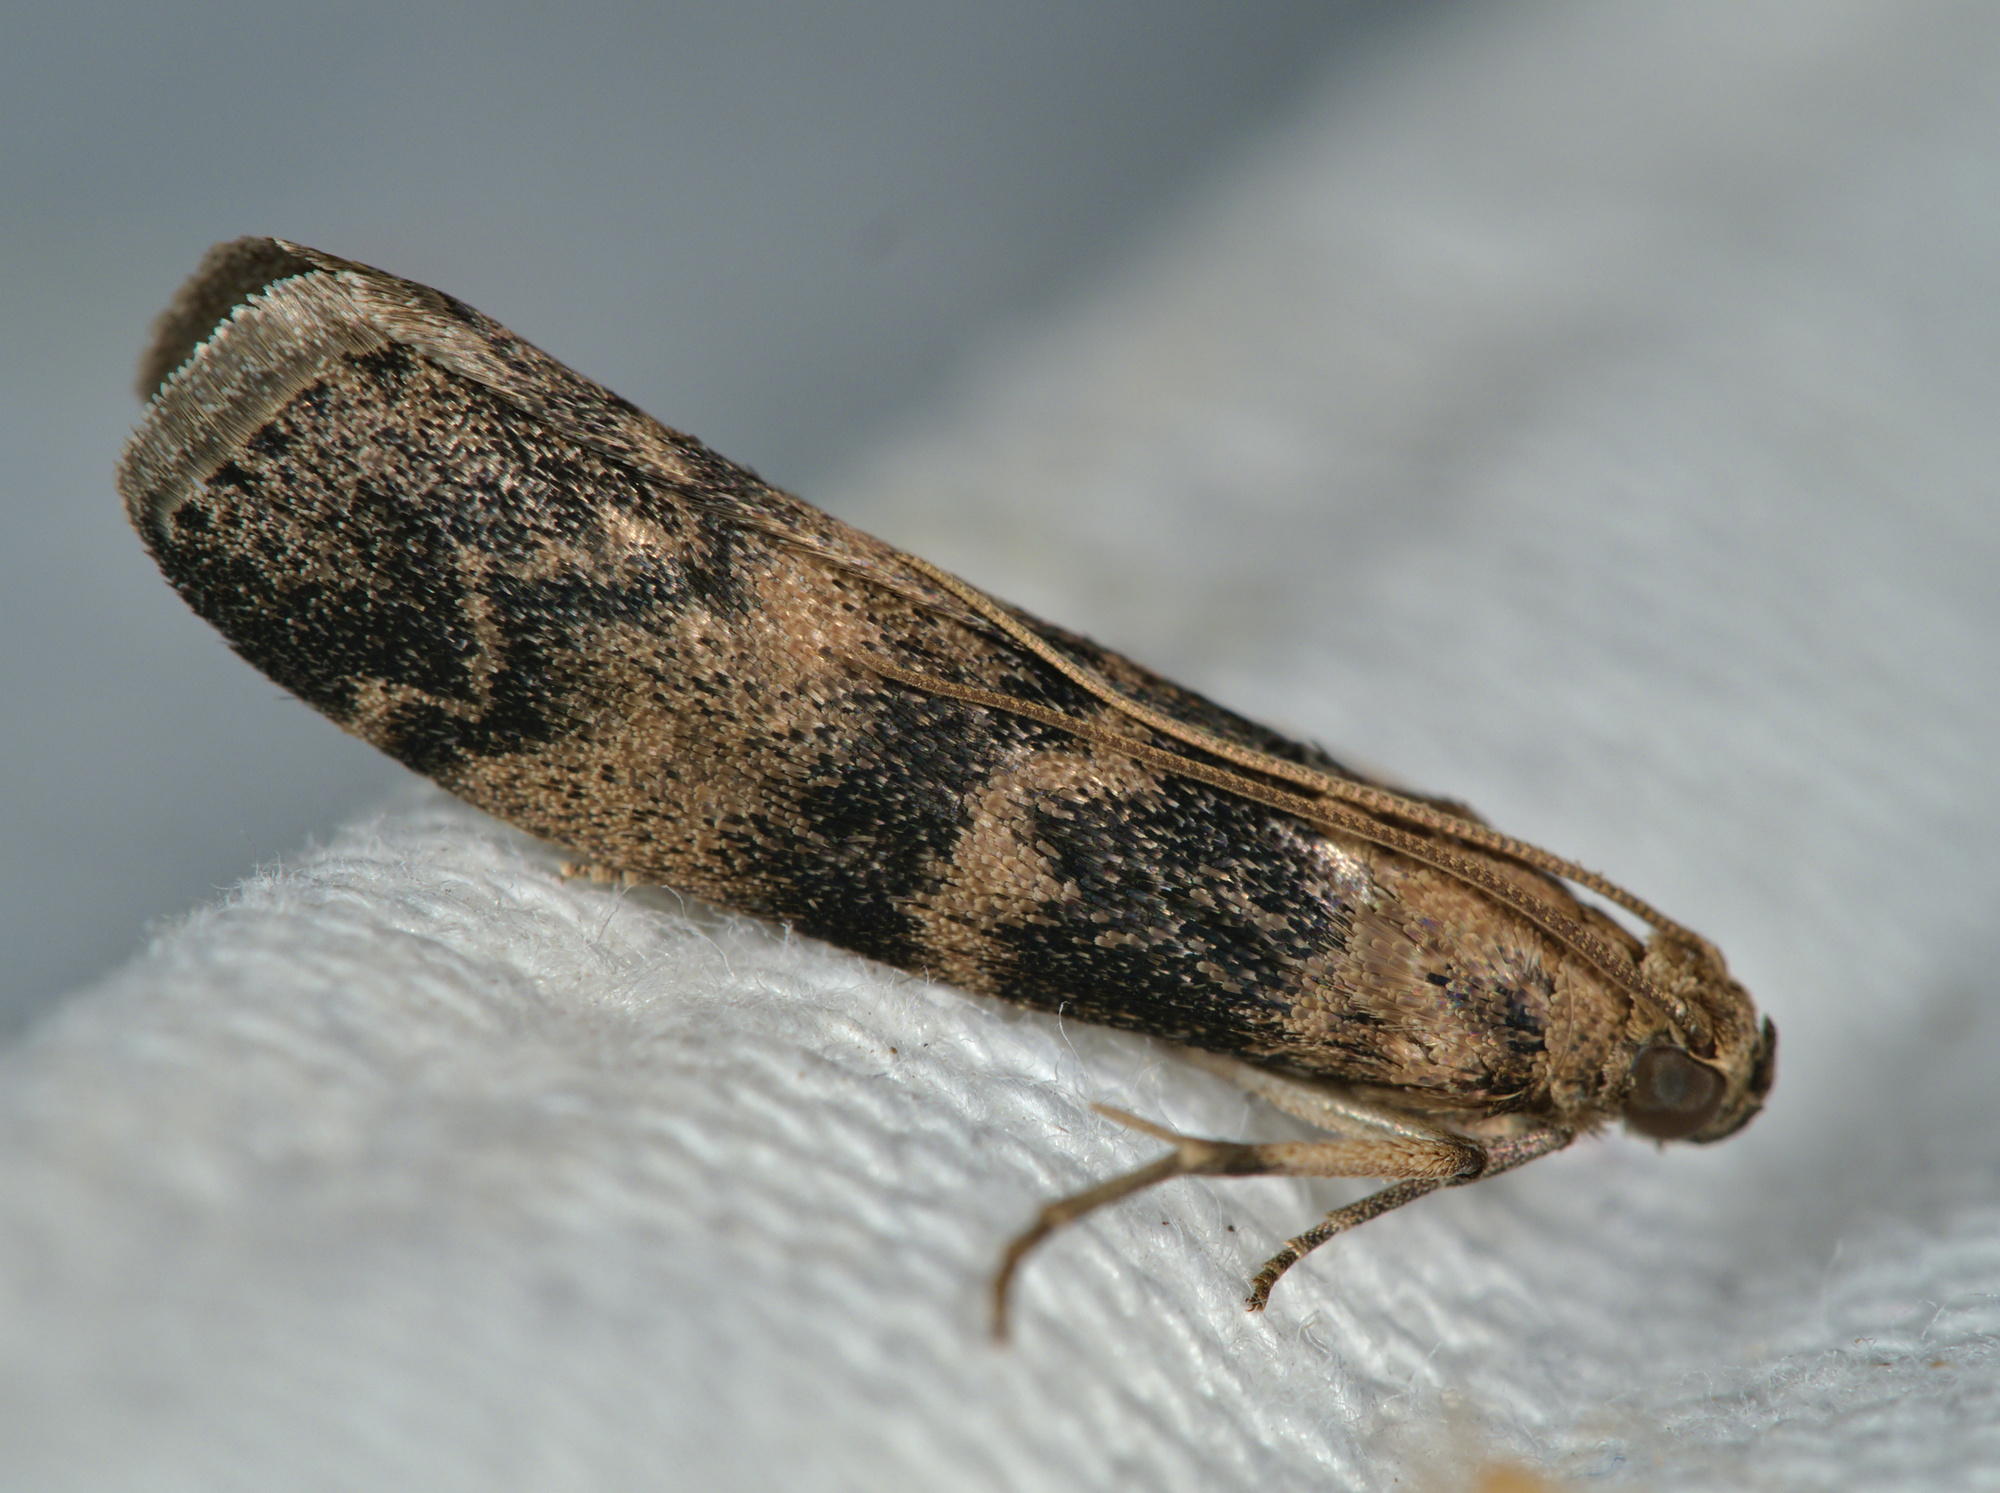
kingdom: Animalia
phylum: Arthropoda
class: Insecta
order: Lepidoptera
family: Pyralidae
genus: Euzophera
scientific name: Euzophera pinguis
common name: Ash-bark knot-horn
